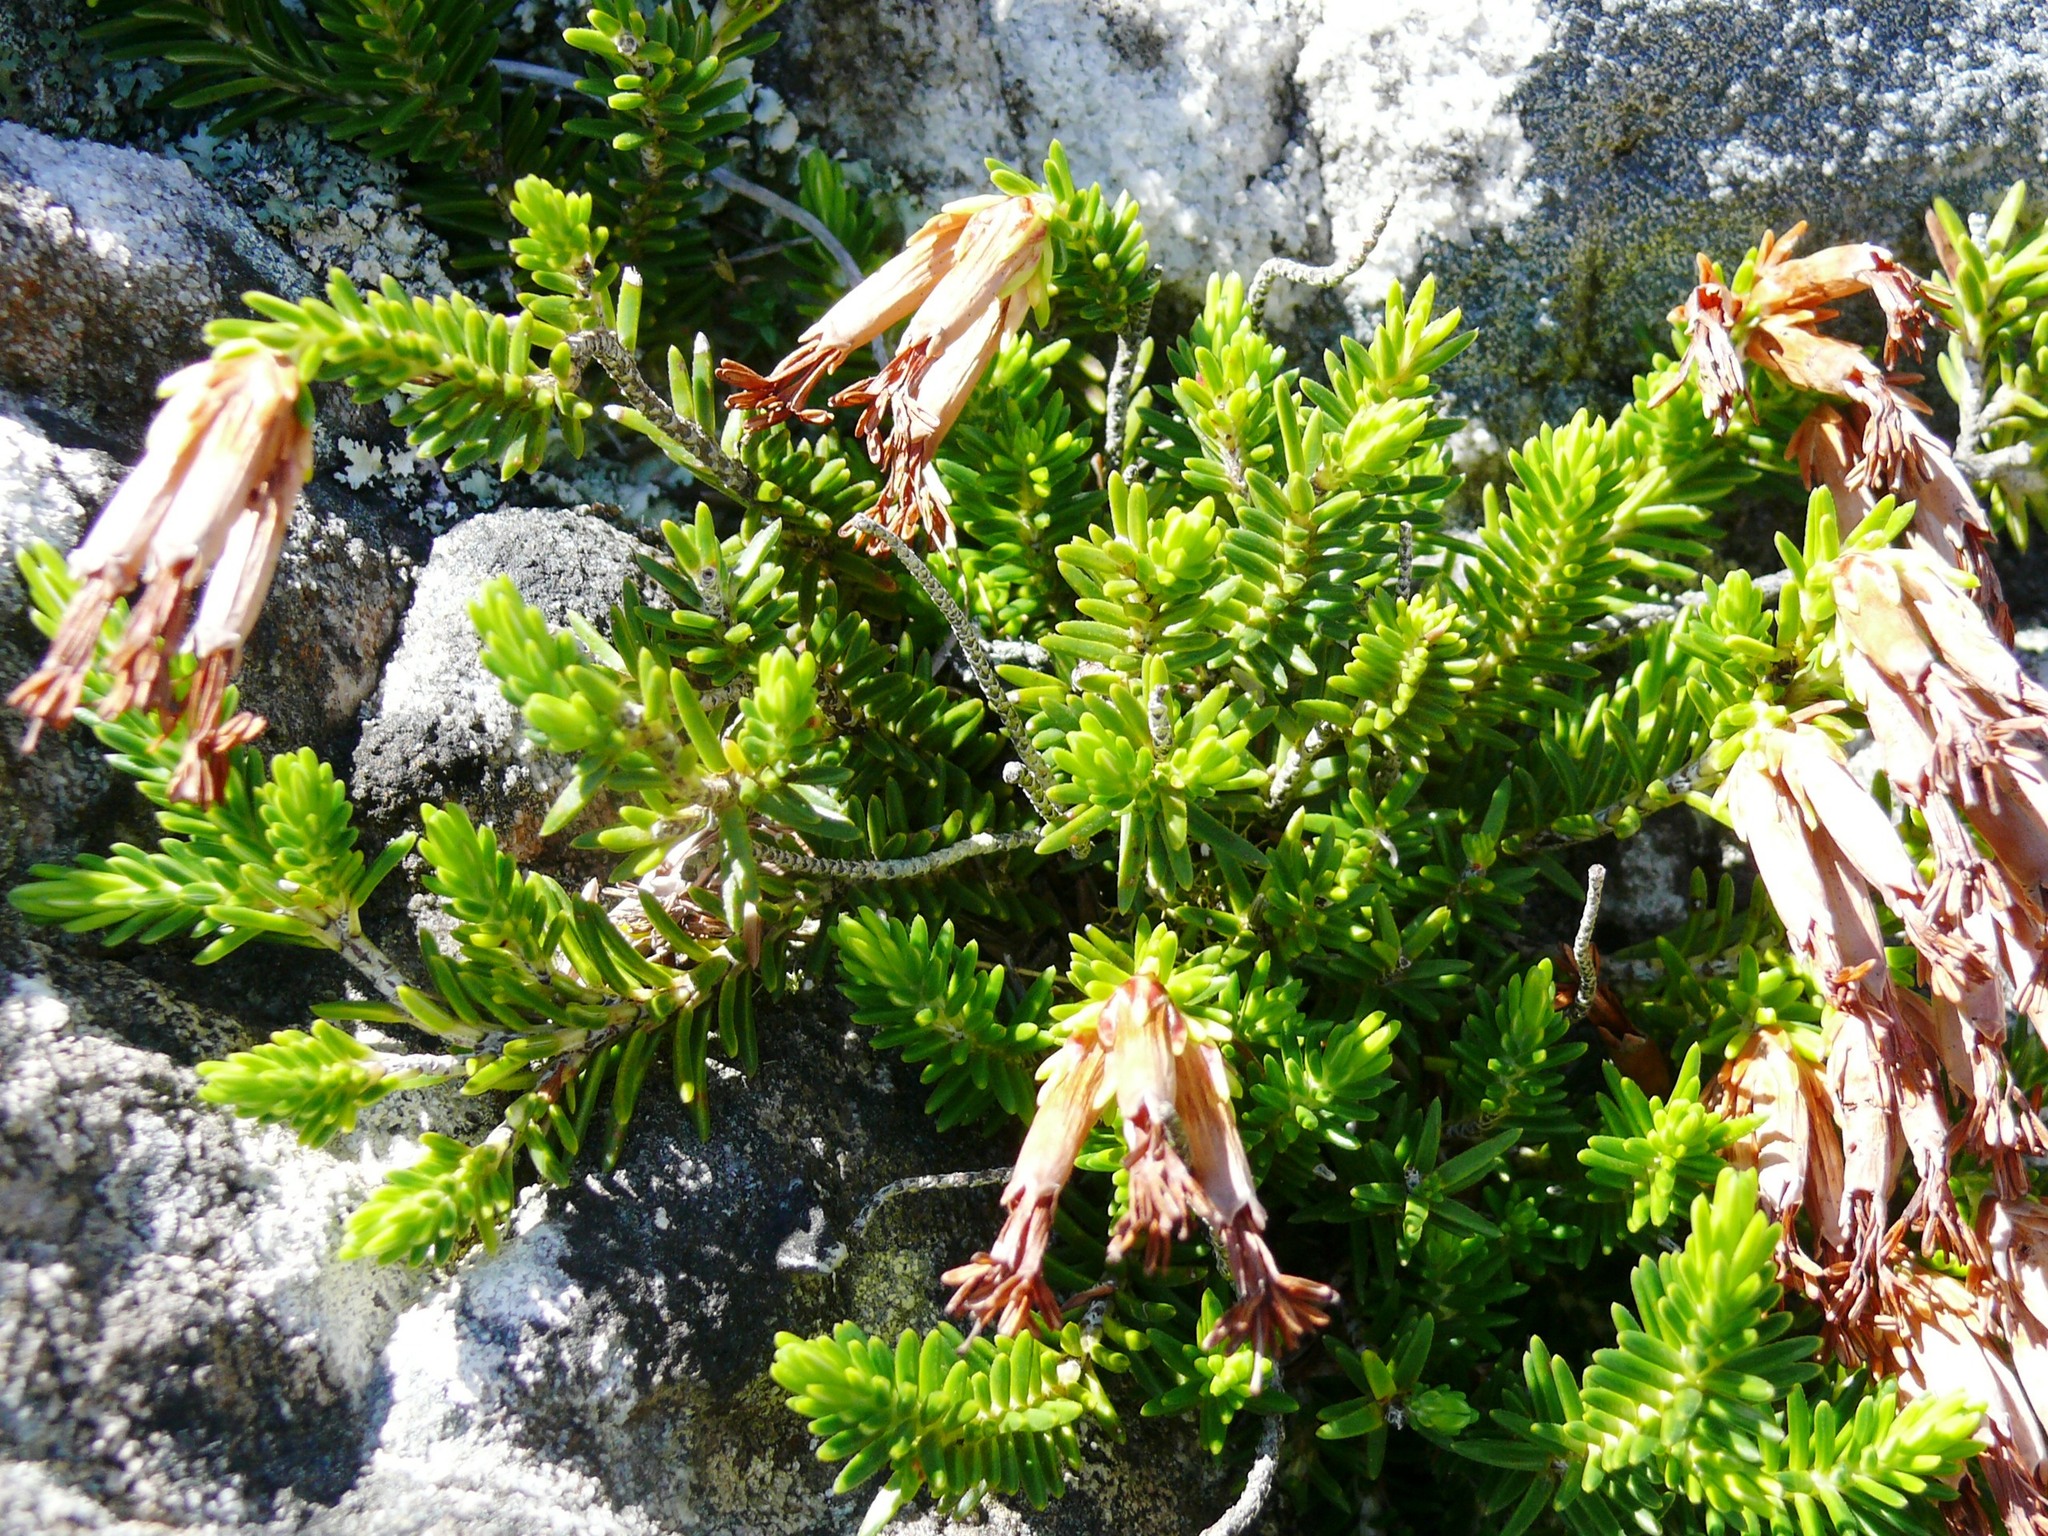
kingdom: Plantae
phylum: Tracheophyta
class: Magnoliopsida
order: Ericales
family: Ericaceae
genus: Erica
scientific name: Erica banksia
